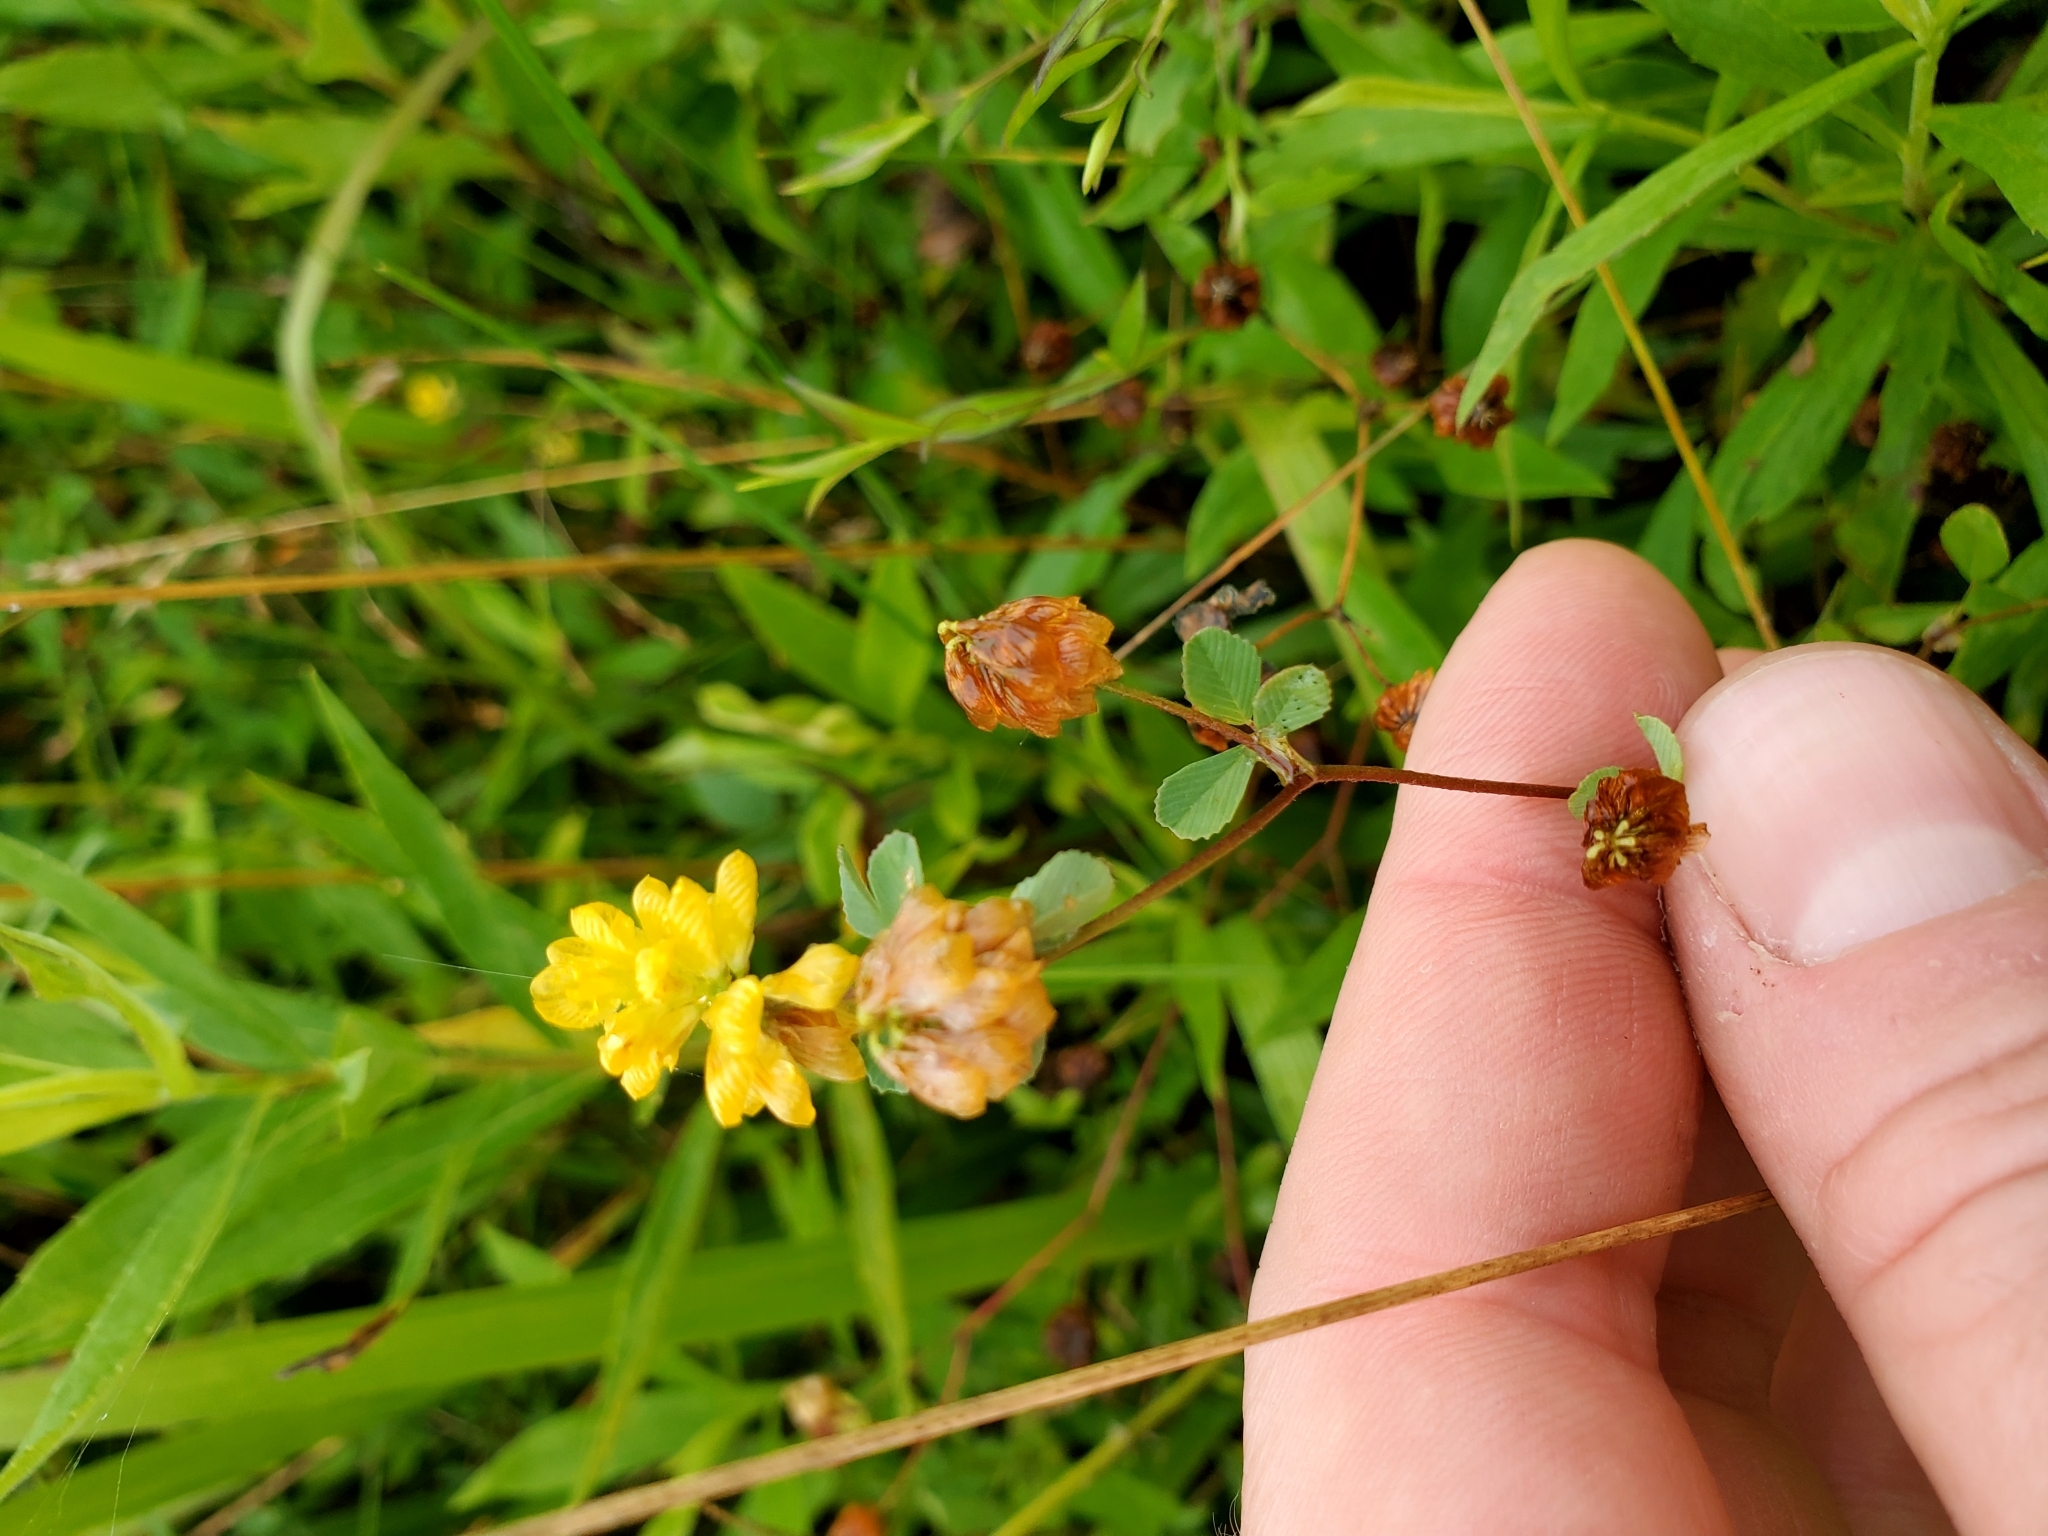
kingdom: Plantae
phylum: Tracheophyta
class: Magnoliopsida
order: Fabales
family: Fabaceae
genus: Trifolium
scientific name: Trifolium campestre
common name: Field clover
